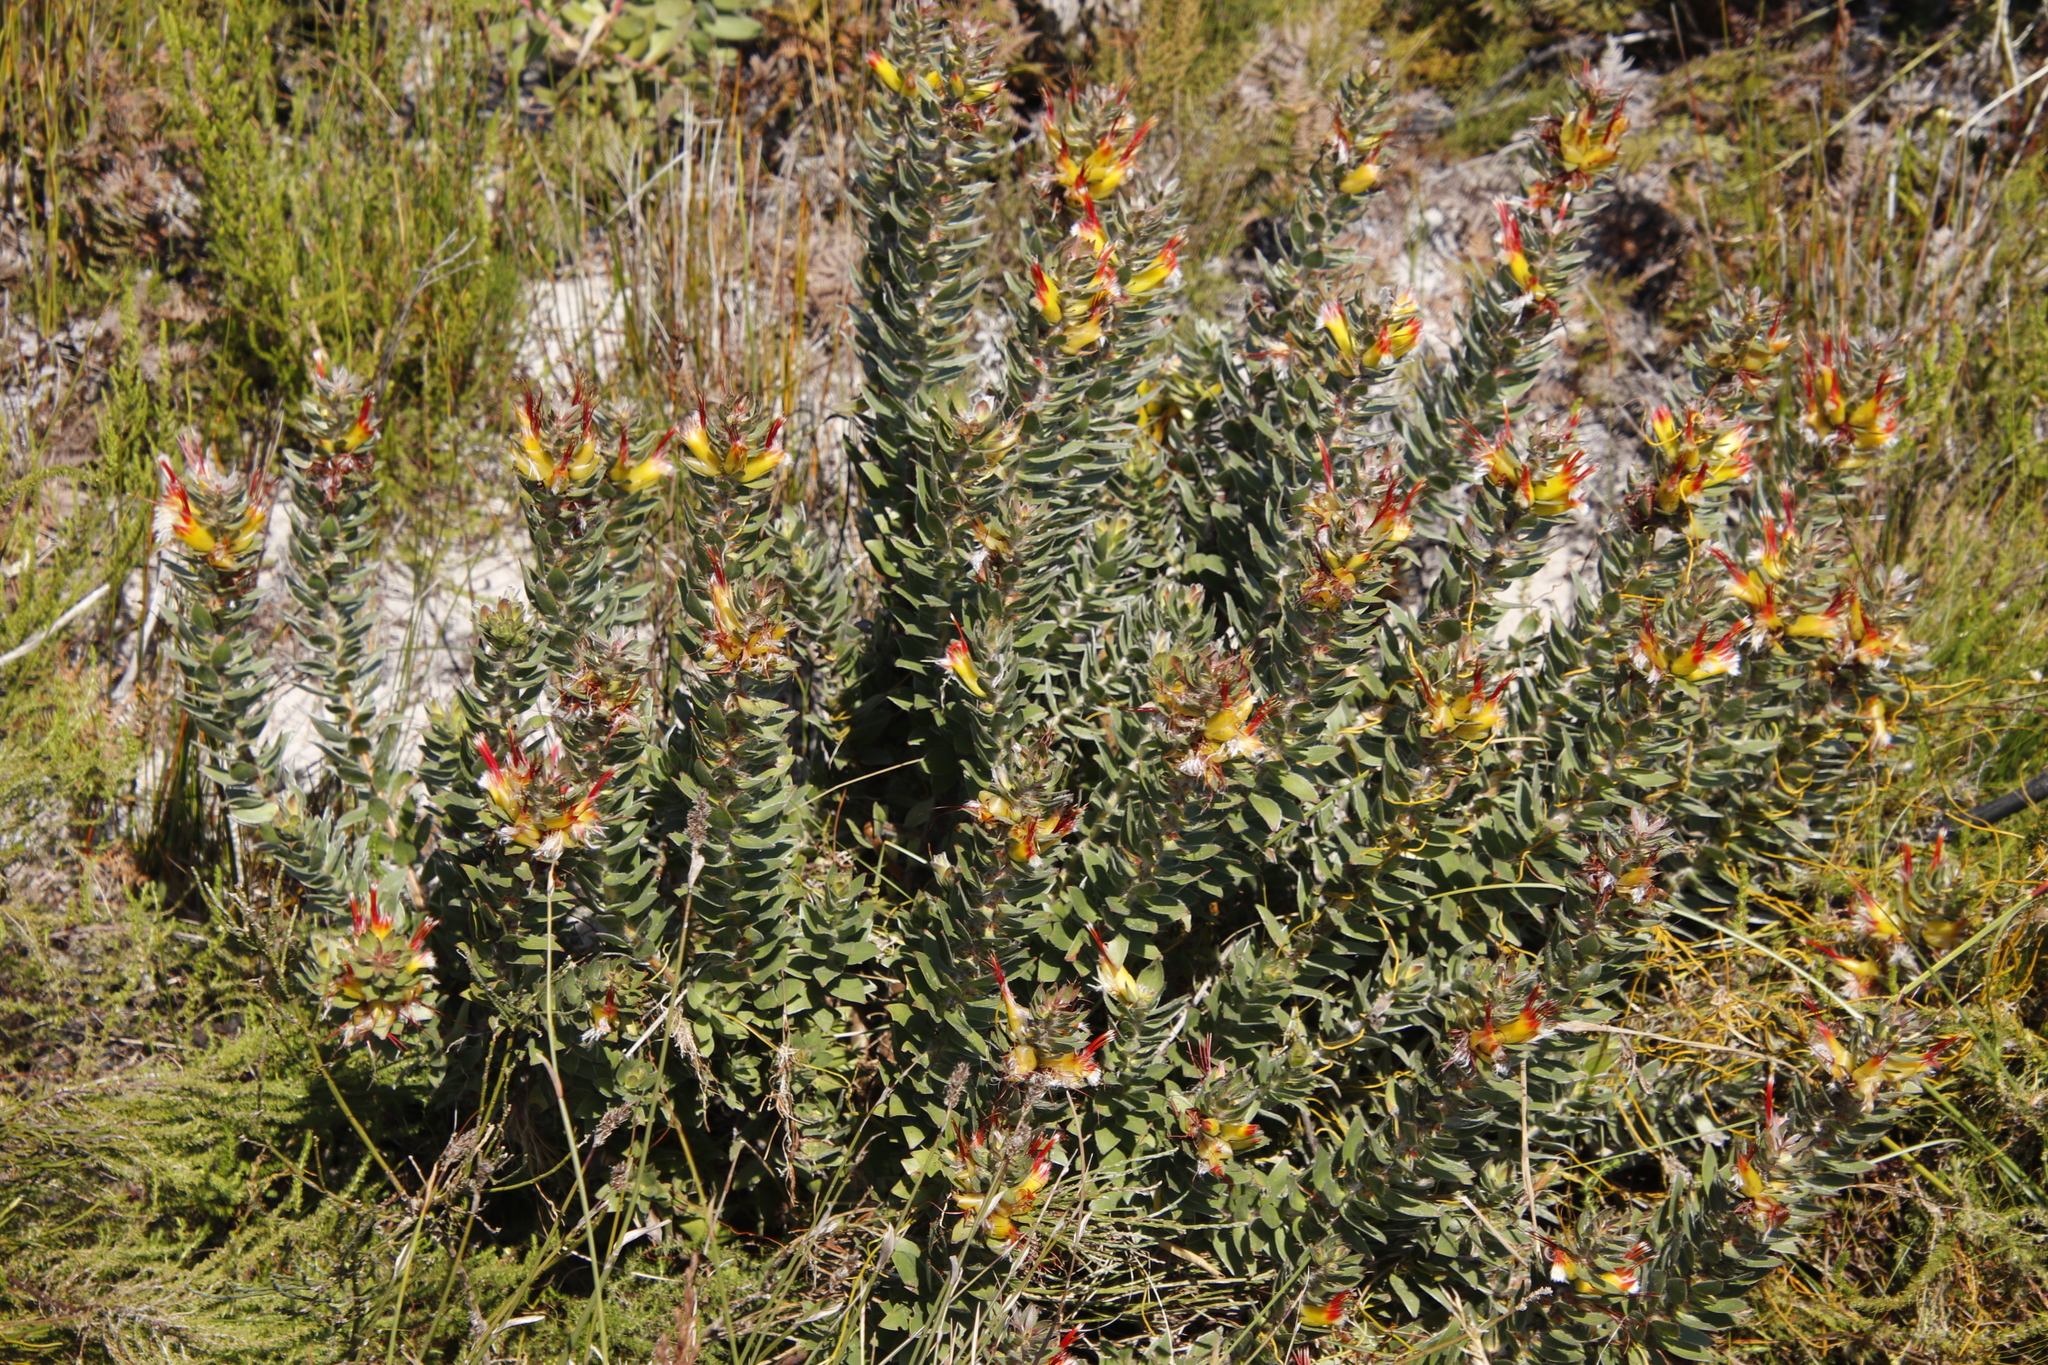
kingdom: Plantae
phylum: Tracheophyta
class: Magnoliopsida
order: Proteales
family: Proteaceae
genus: Mimetes
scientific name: Mimetes hirtus
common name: Marsh pagoda
